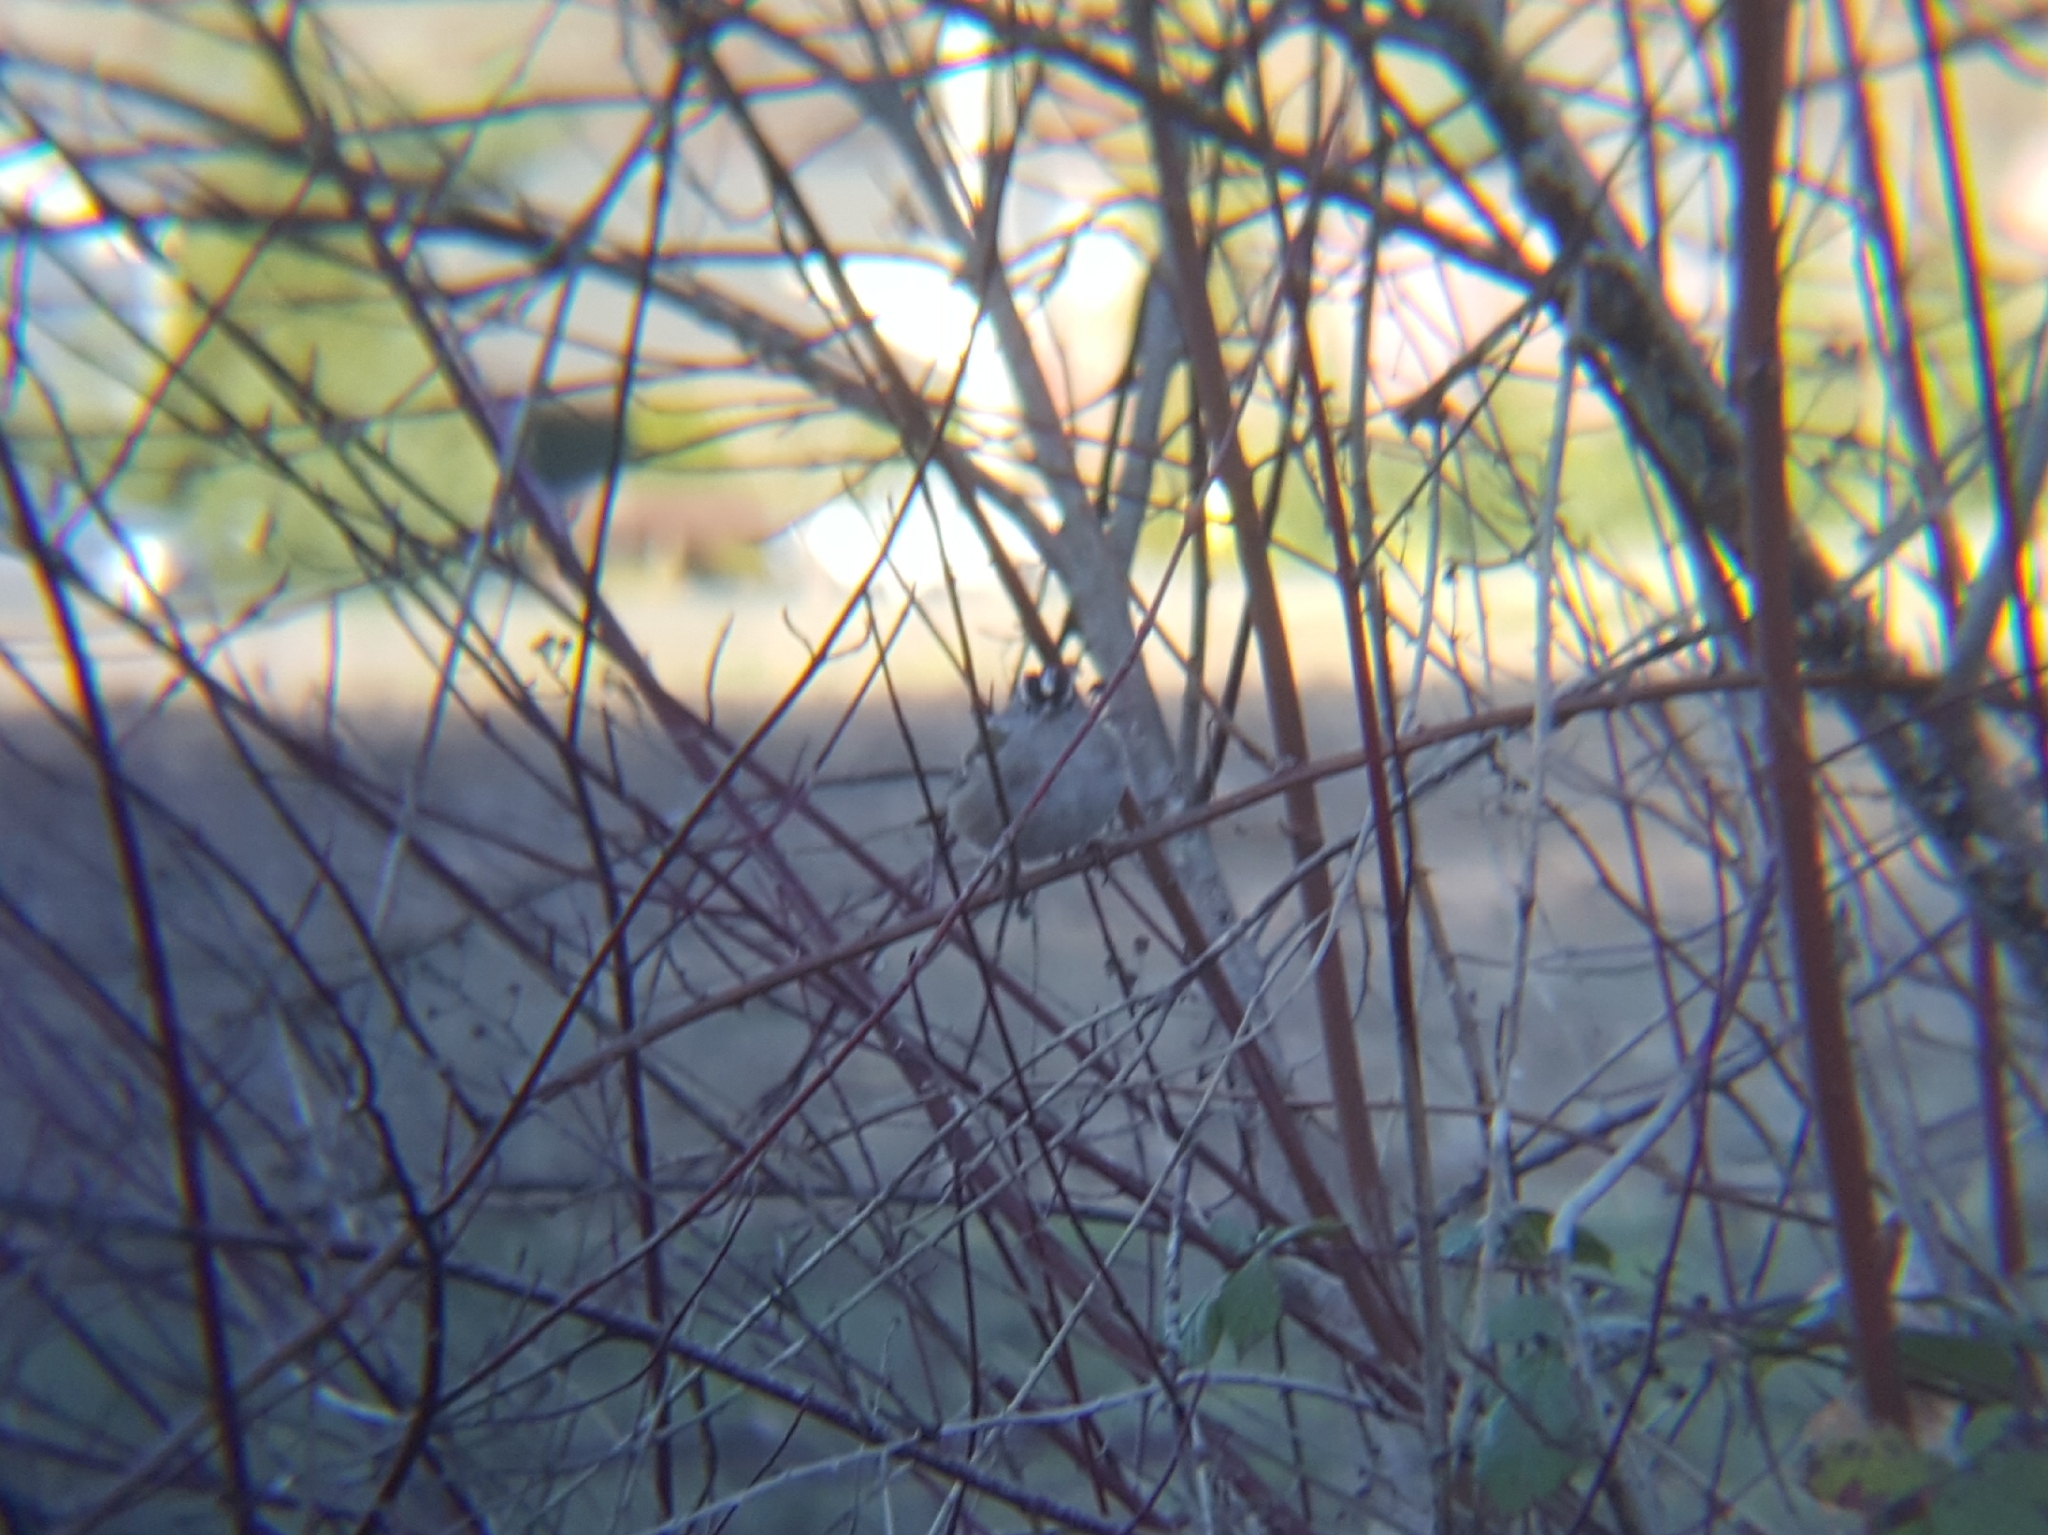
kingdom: Animalia
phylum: Chordata
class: Aves
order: Passeriformes
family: Passerellidae
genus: Zonotrichia
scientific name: Zonotrichia leucophrys
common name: White-crowned sparrow
